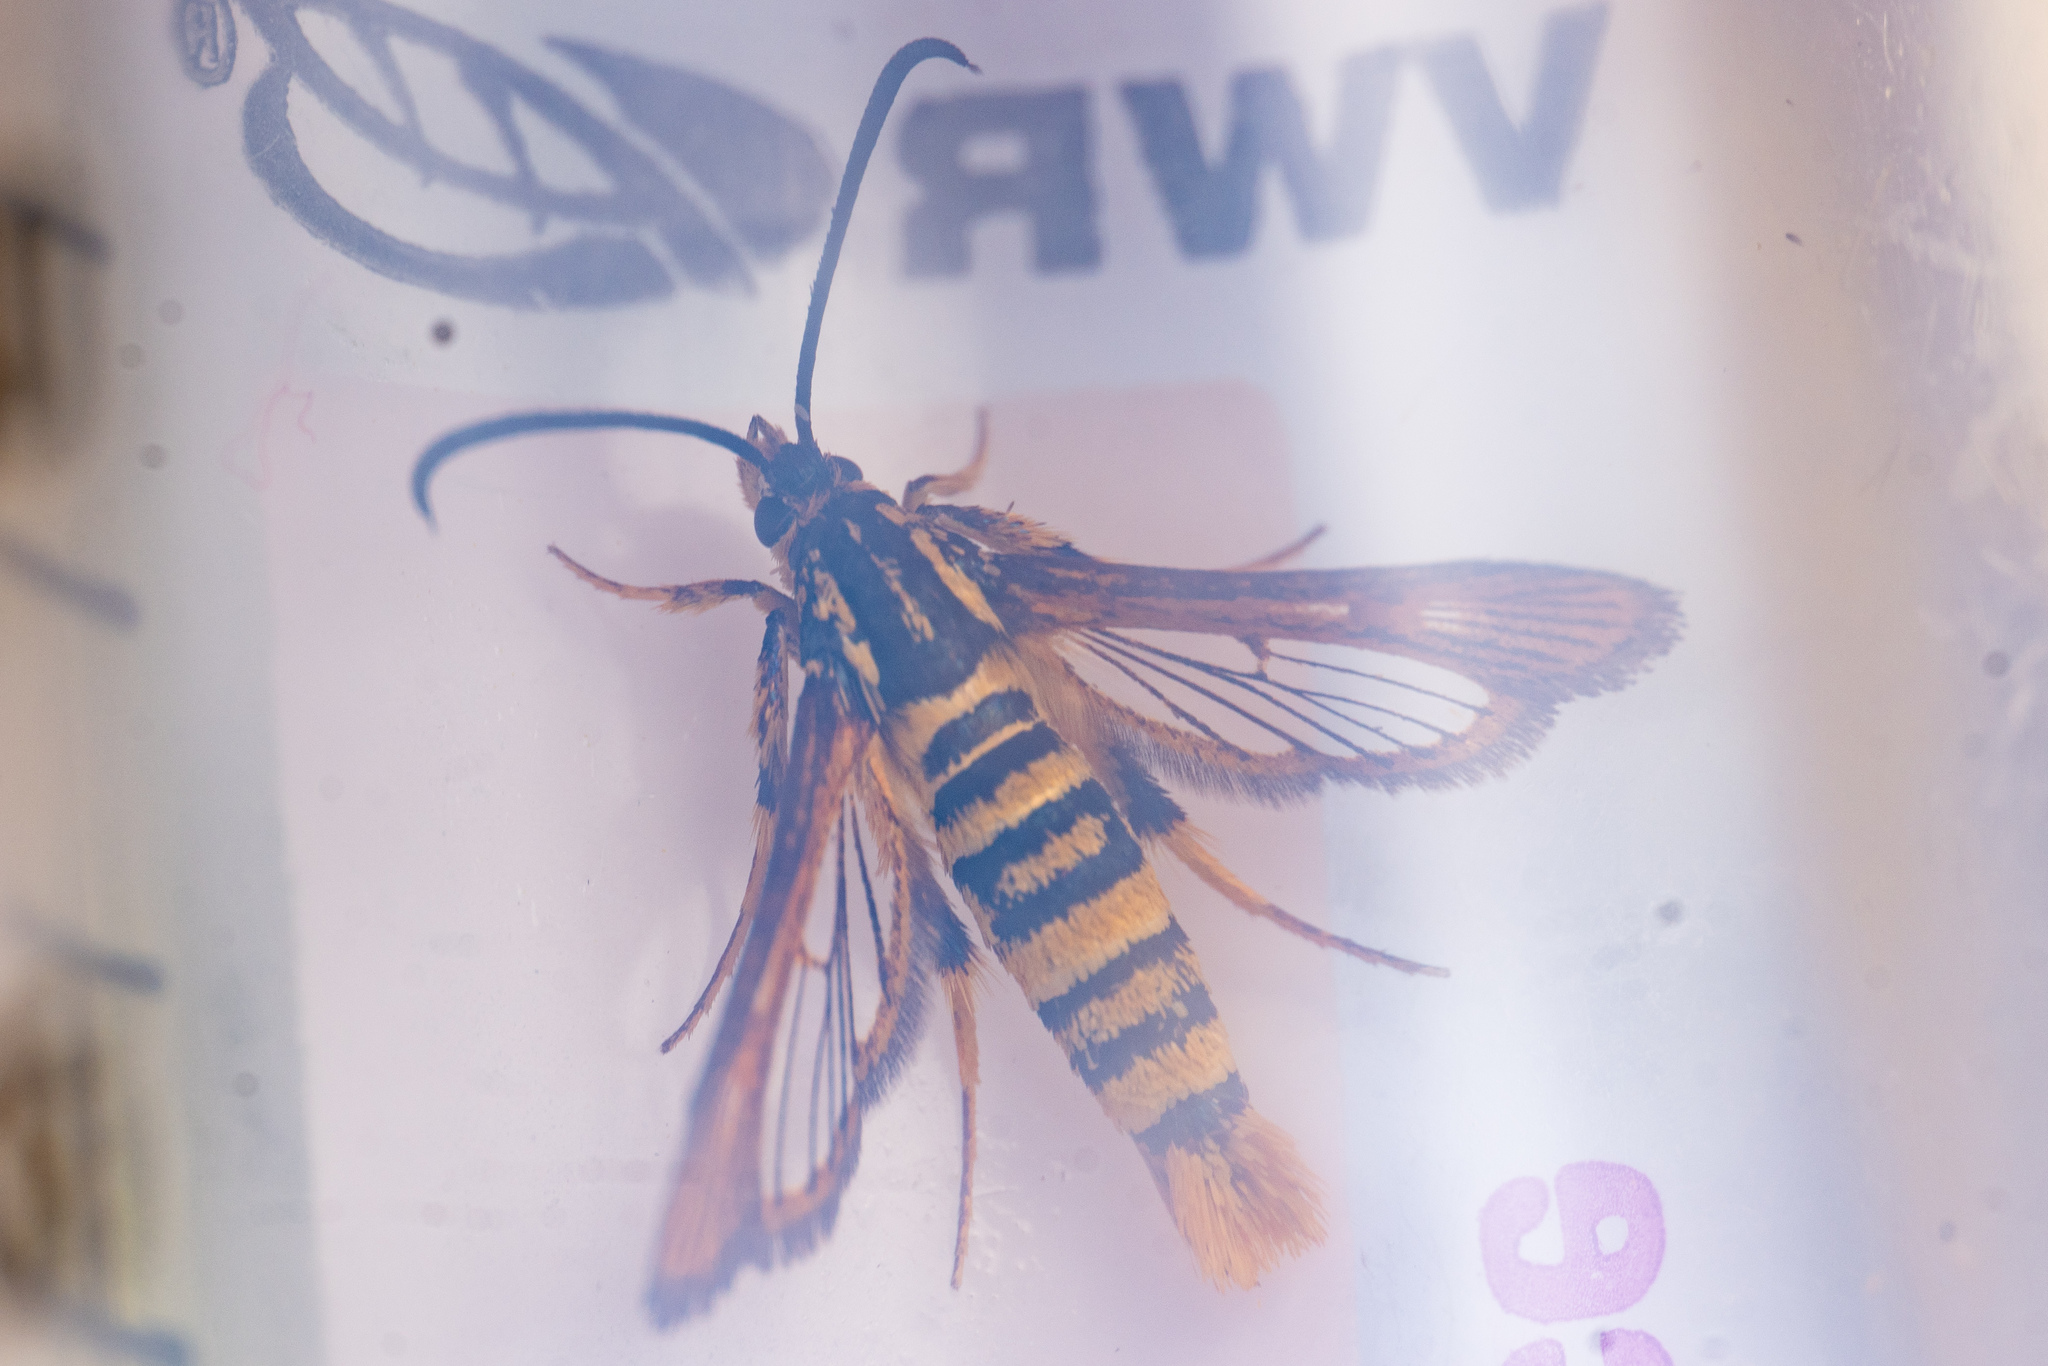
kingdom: Animalia
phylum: Arthropoda
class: Insecta
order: Lepidoptera
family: Sesiidae
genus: Synanthedon
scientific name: Synanthedon mellinipennis
